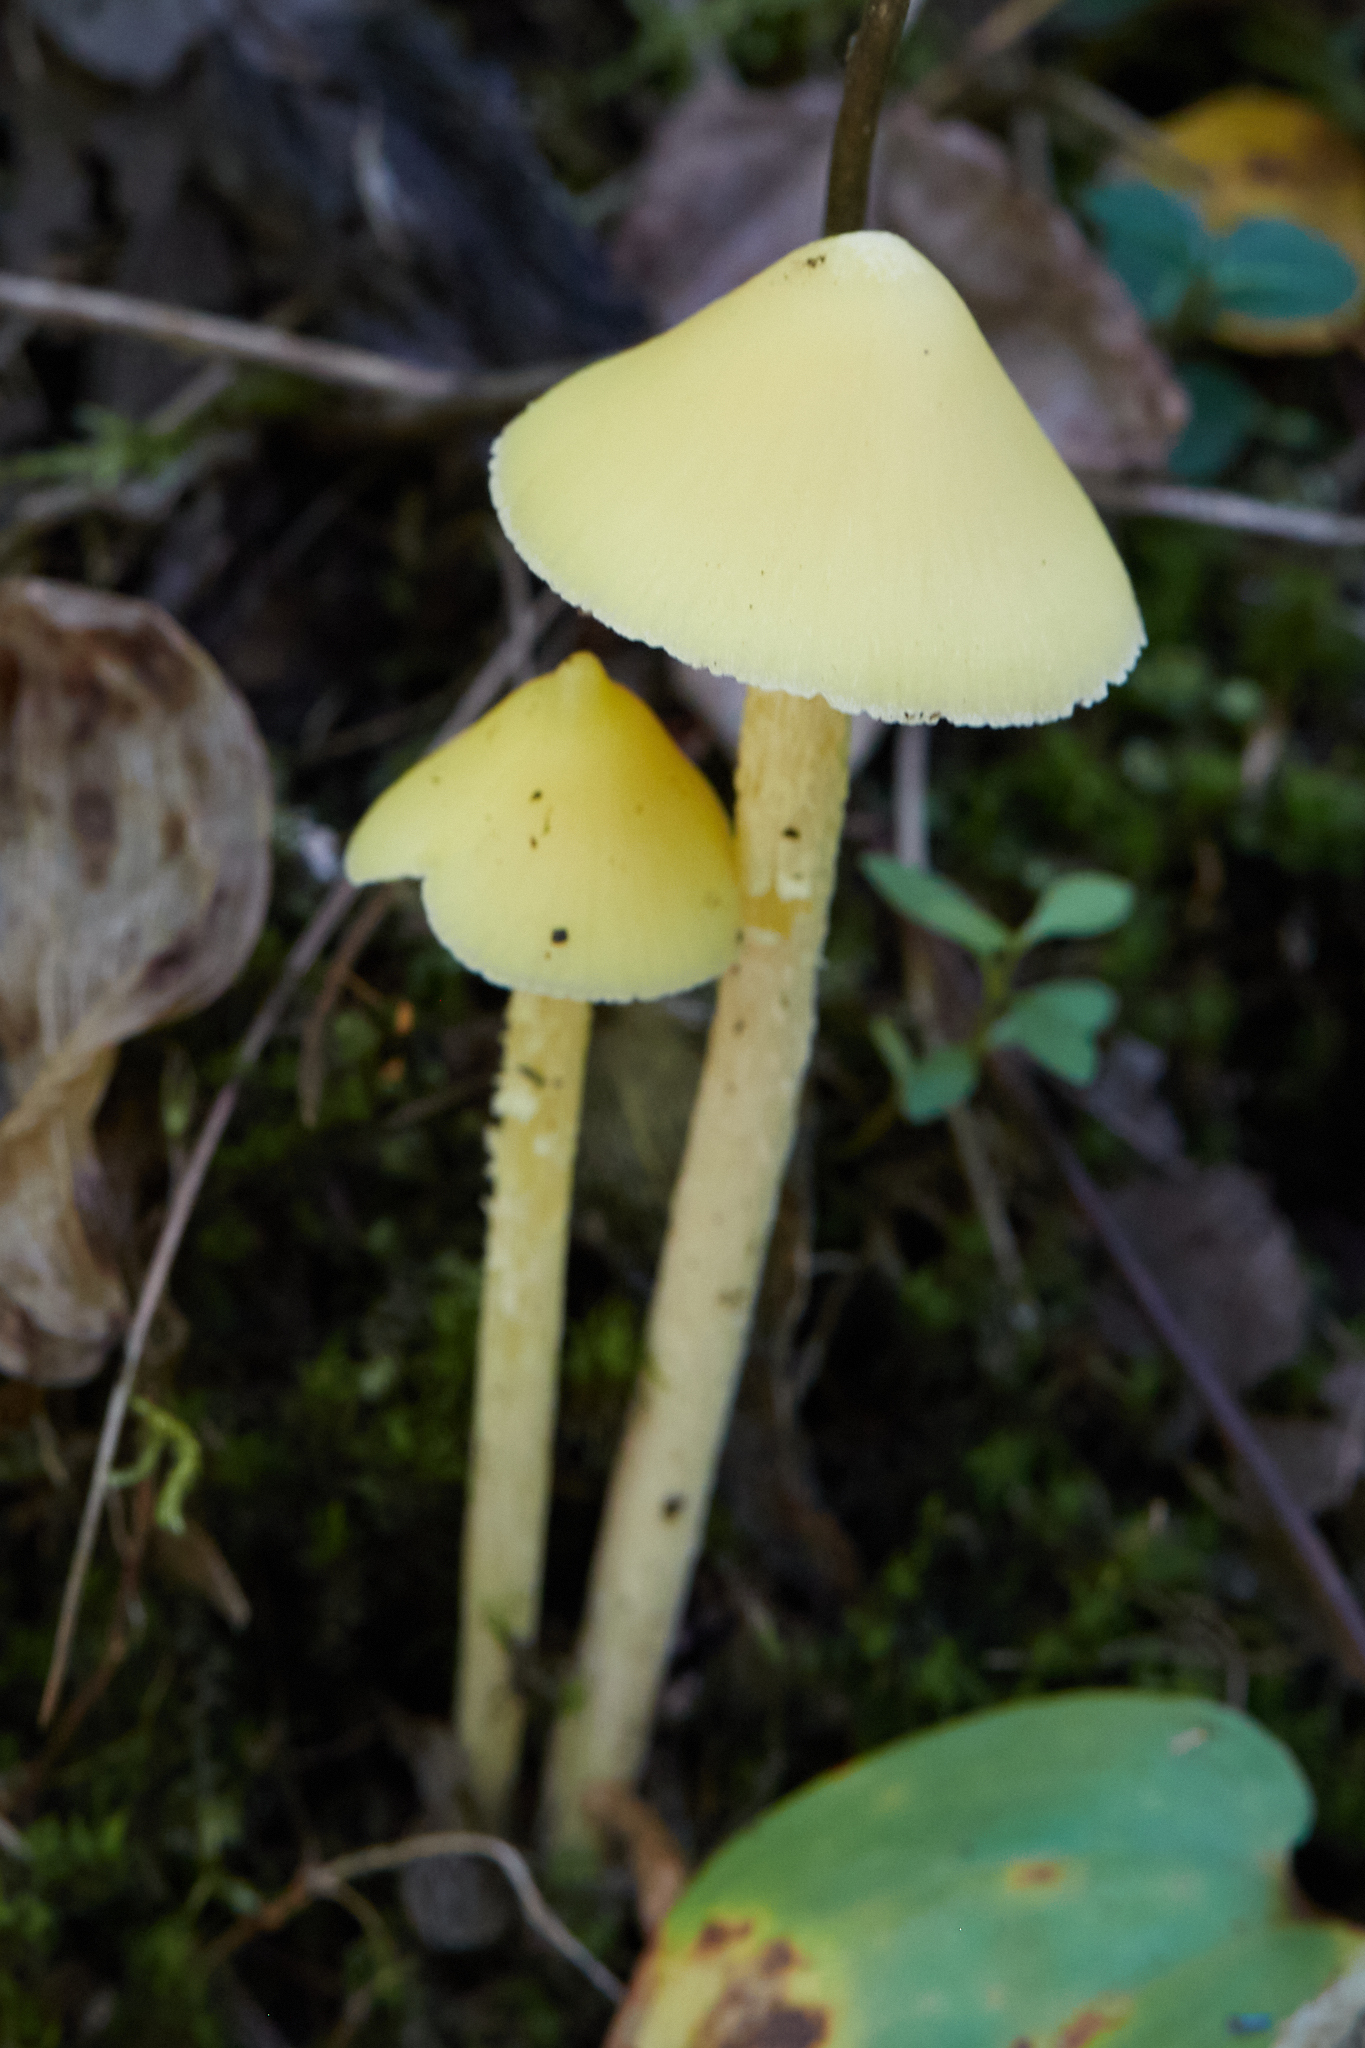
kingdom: Fungi
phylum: Basidiomycota
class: Agaricomycetes
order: Agaricales
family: Entolomataceae
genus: Entoloma
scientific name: Entoloma murrayi
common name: Yellow unicorn entoloma
